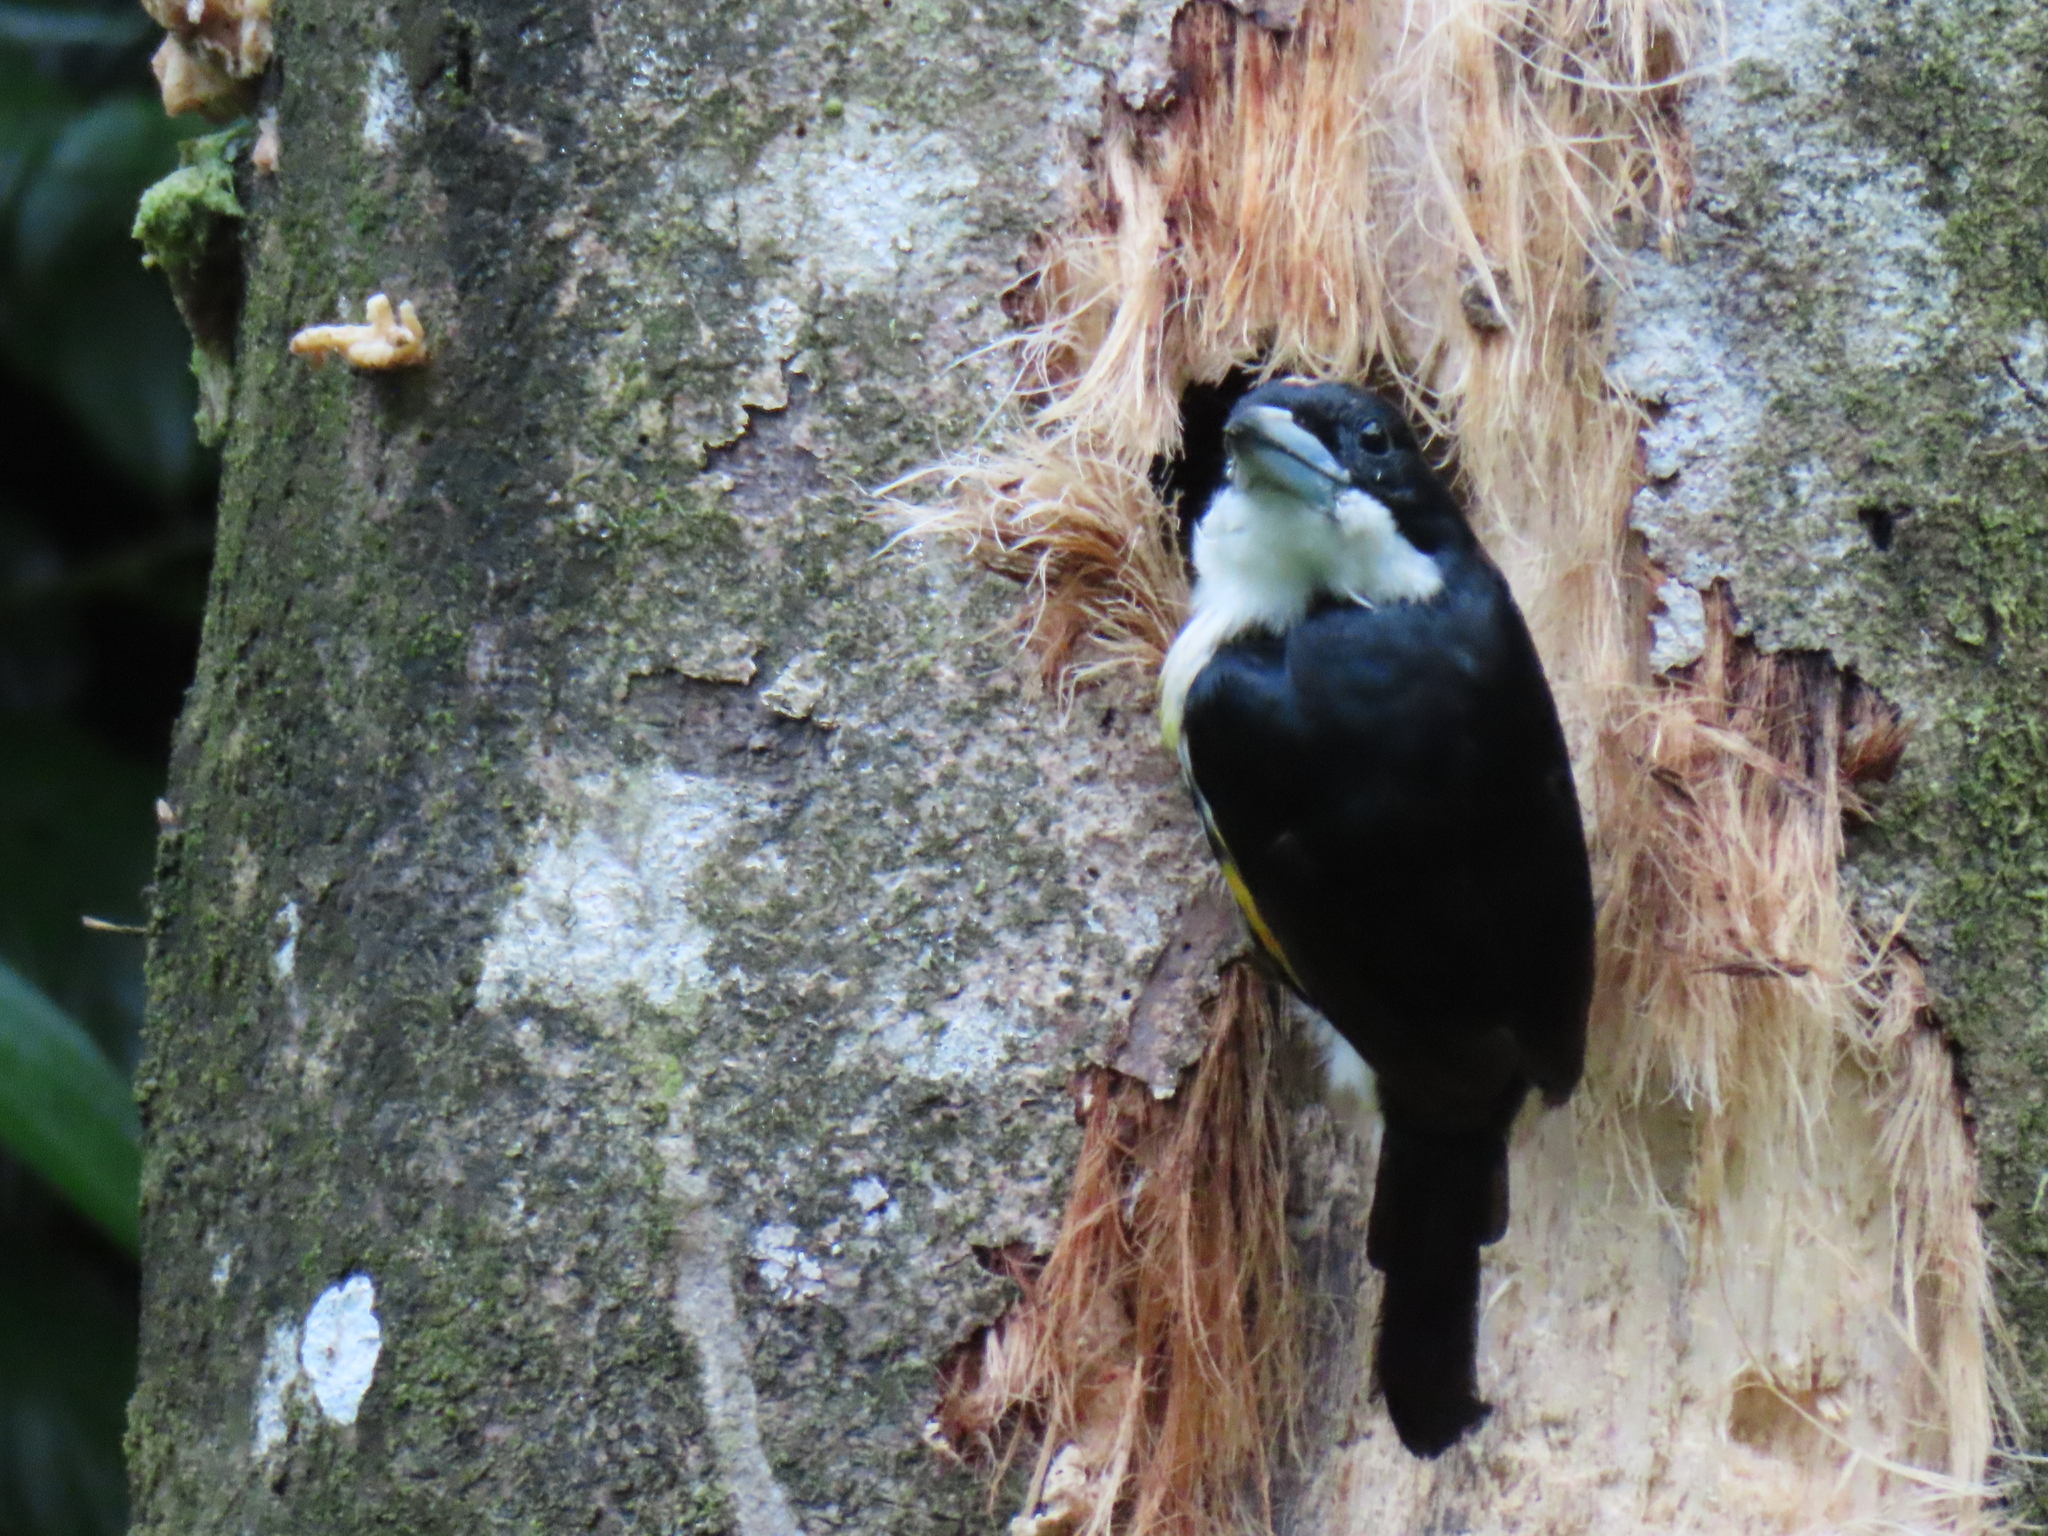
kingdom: Animalia
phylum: Chordata
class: Aves
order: Piciformes
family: Capitonidae
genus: Capito
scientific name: Capito maculicoronatus
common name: Spot-crowned barbet
